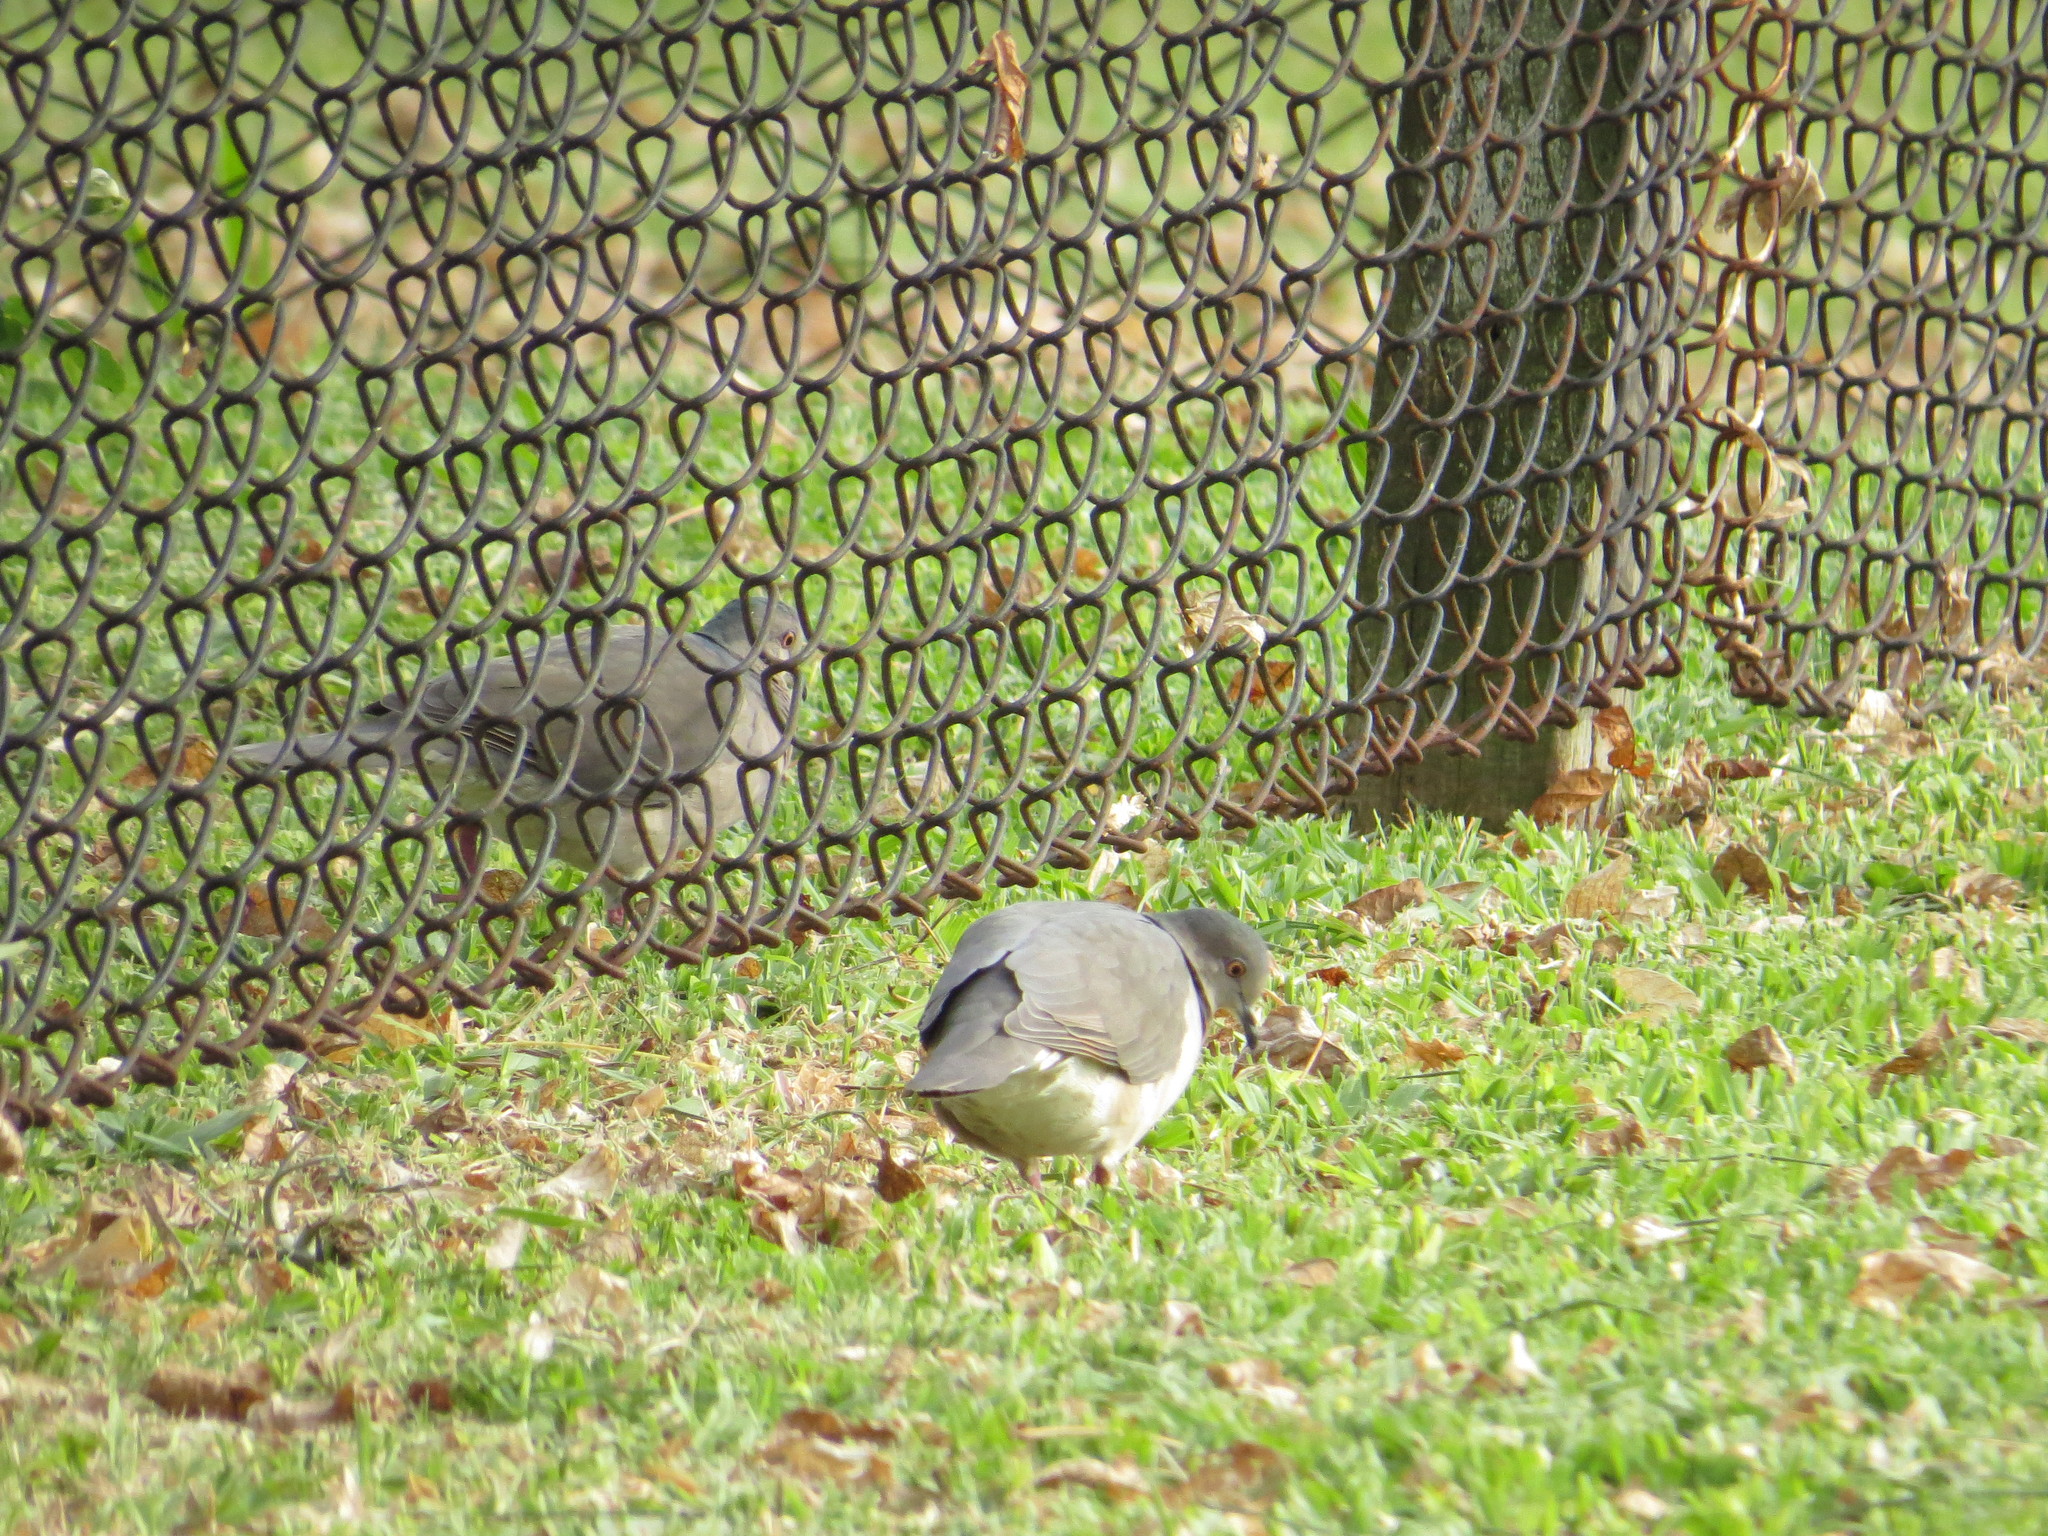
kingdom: Animalia
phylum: Chordata
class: Aves
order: Columbiformes
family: Columbidae
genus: Leptotila
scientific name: Leptotila verreauxi
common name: White-tipped dove
